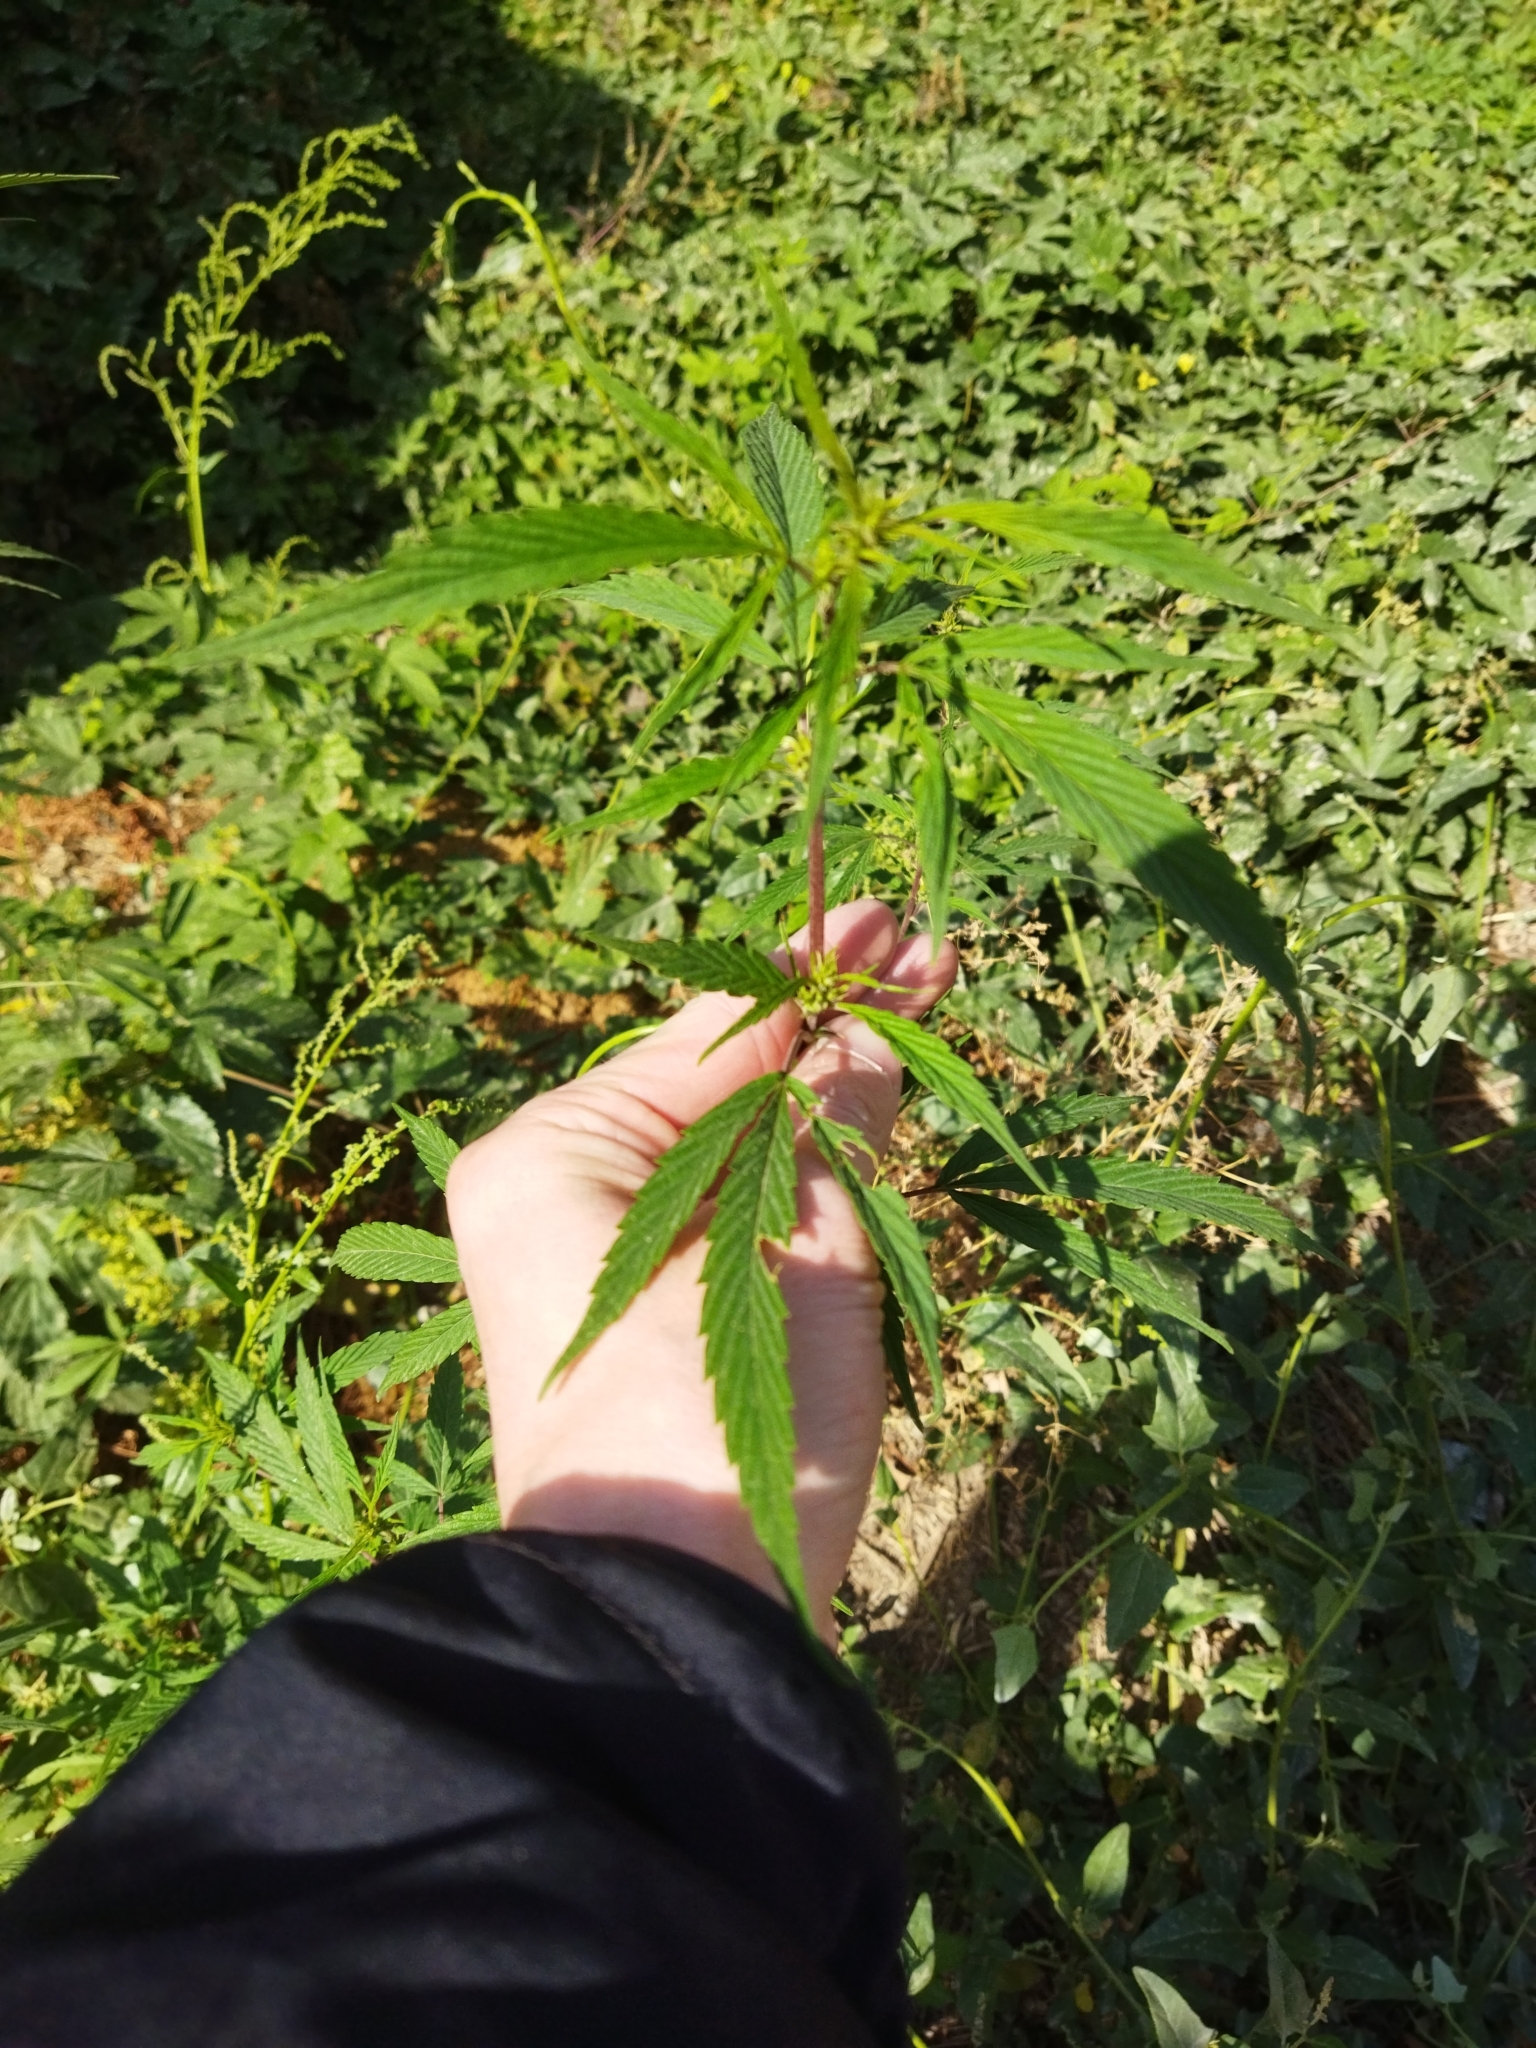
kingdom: Plantae
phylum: Tracheophyta
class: Magnoliopsida
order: Rosales
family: Cannabaceae
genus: Cannabis
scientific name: Cannabis sativa
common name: Hemp
